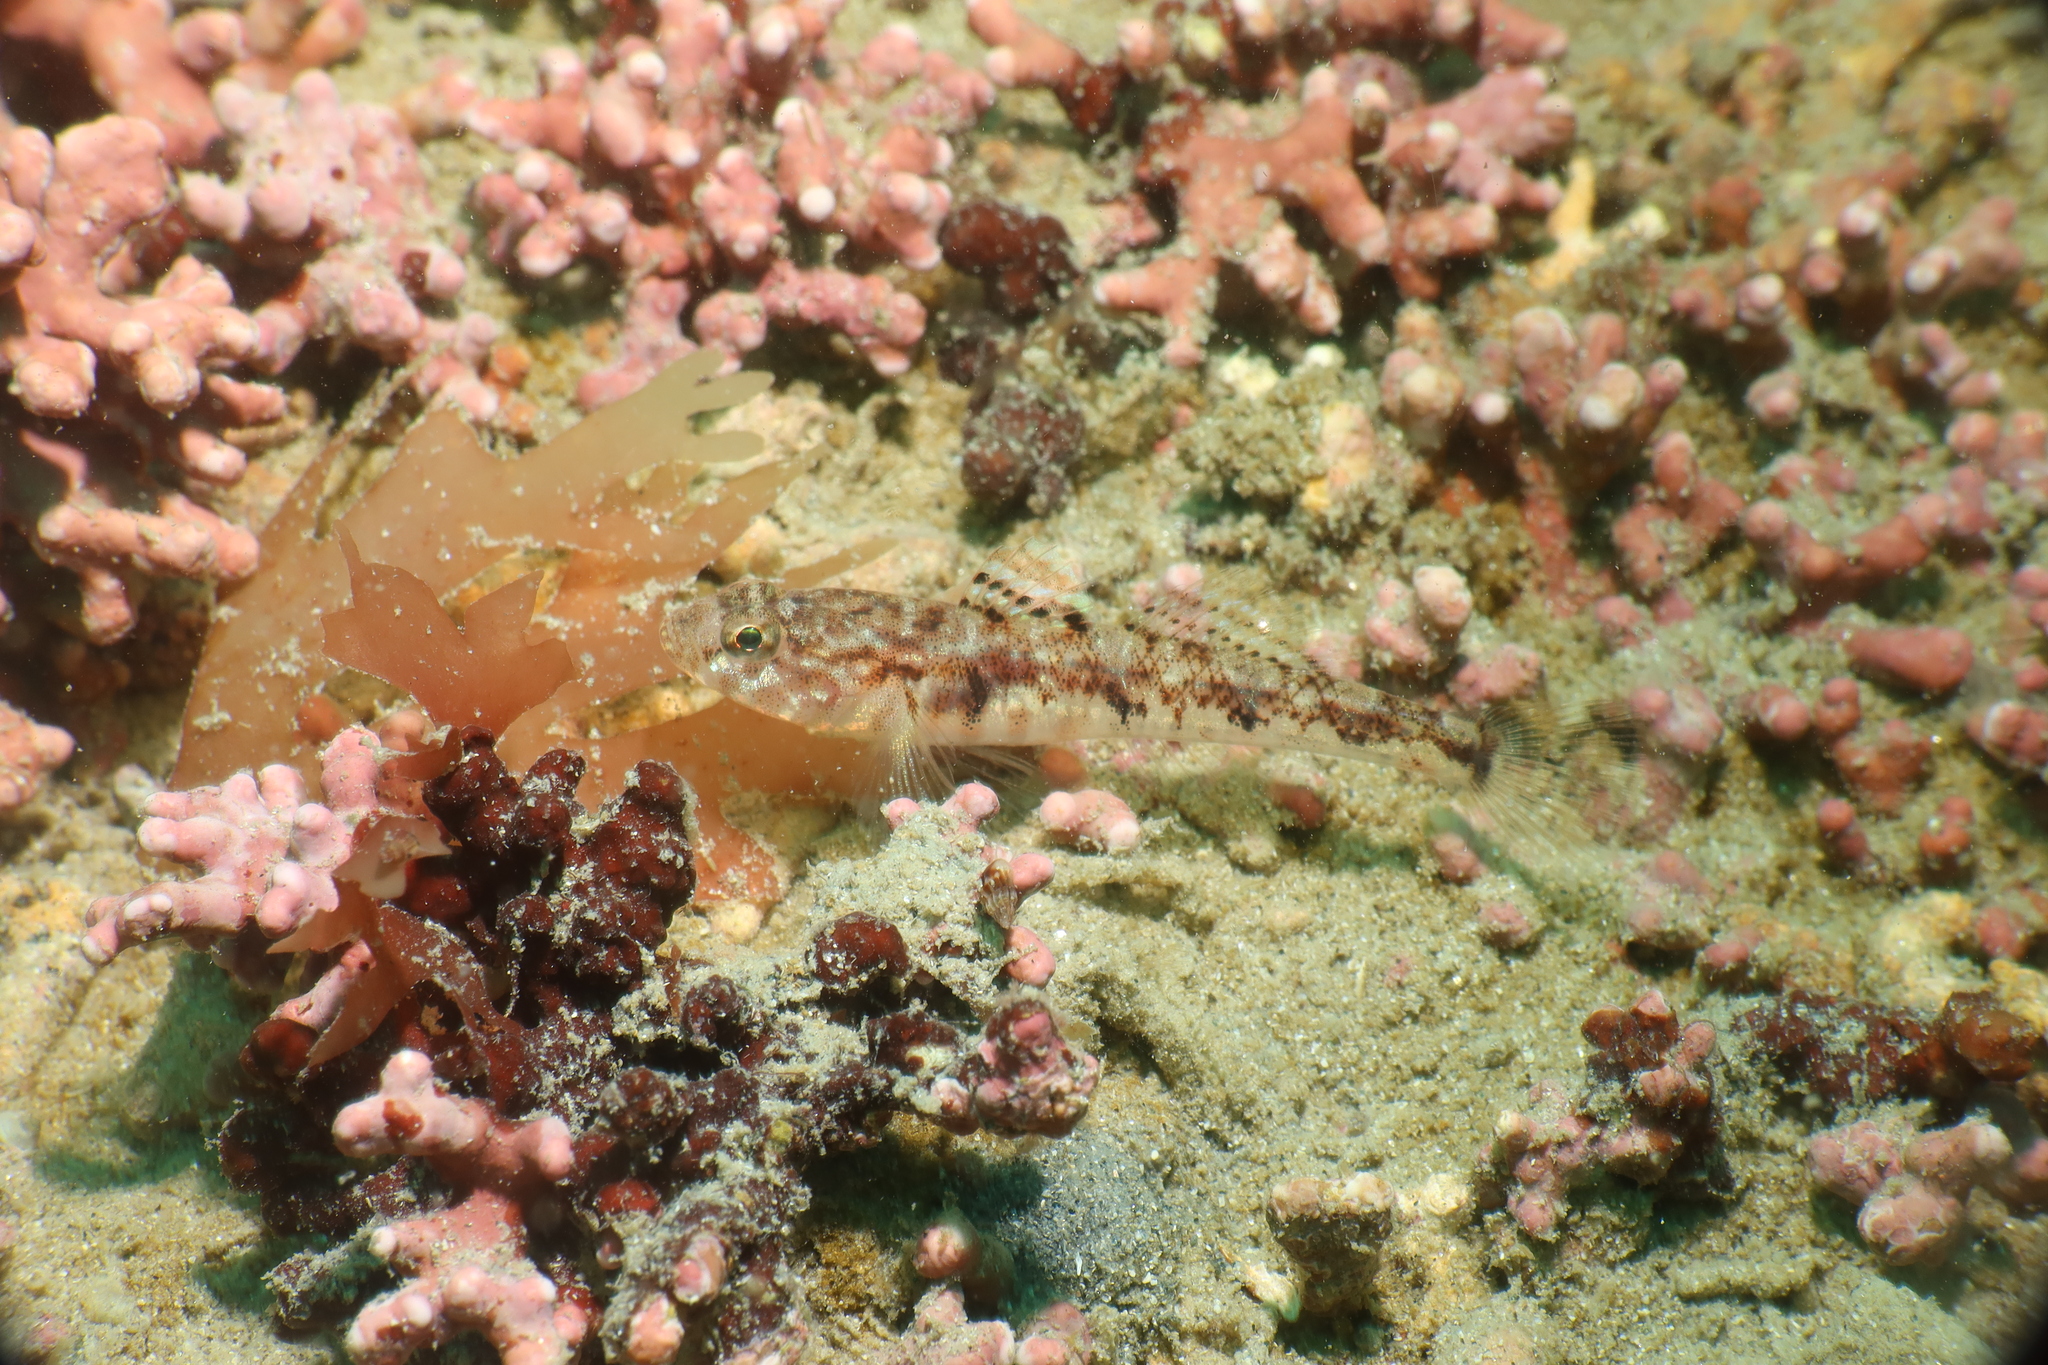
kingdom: Animalia
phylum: Chordata
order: Perciformes
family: Gobiidae
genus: Pomatoschistus
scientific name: Pomatoschistus pictus
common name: Painted goby
